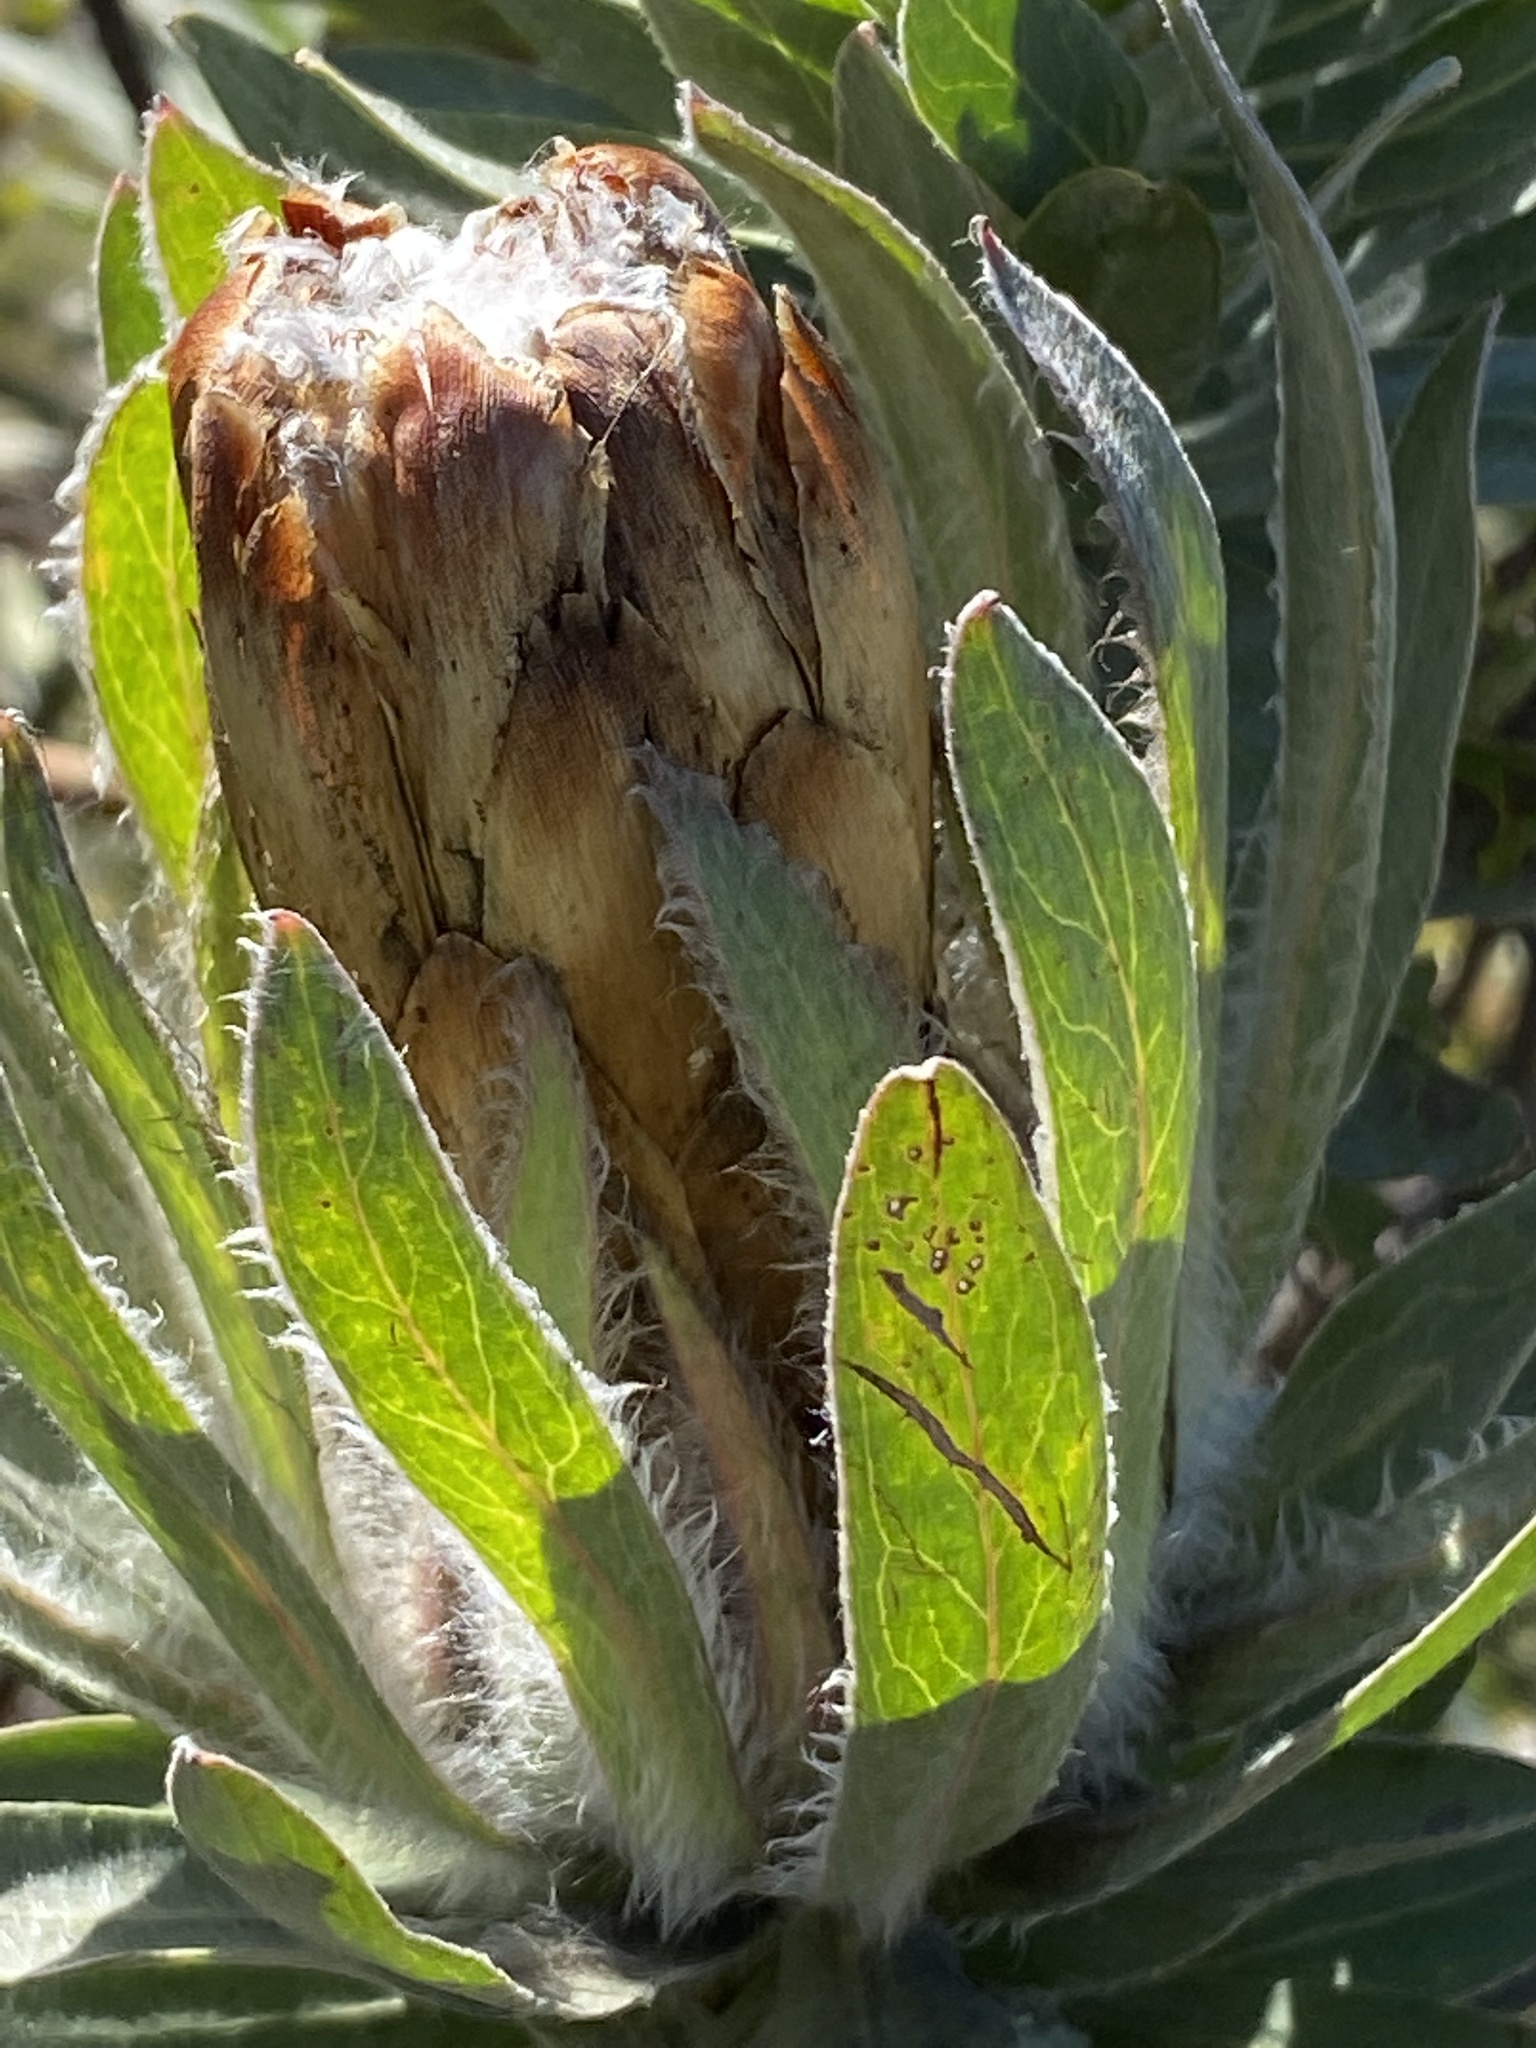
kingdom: Plantae
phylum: Tracheophyta
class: Magnoliopsida
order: Proteales
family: Proteaceae
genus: Protea
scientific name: Protea coronata
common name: Green sugarbush
